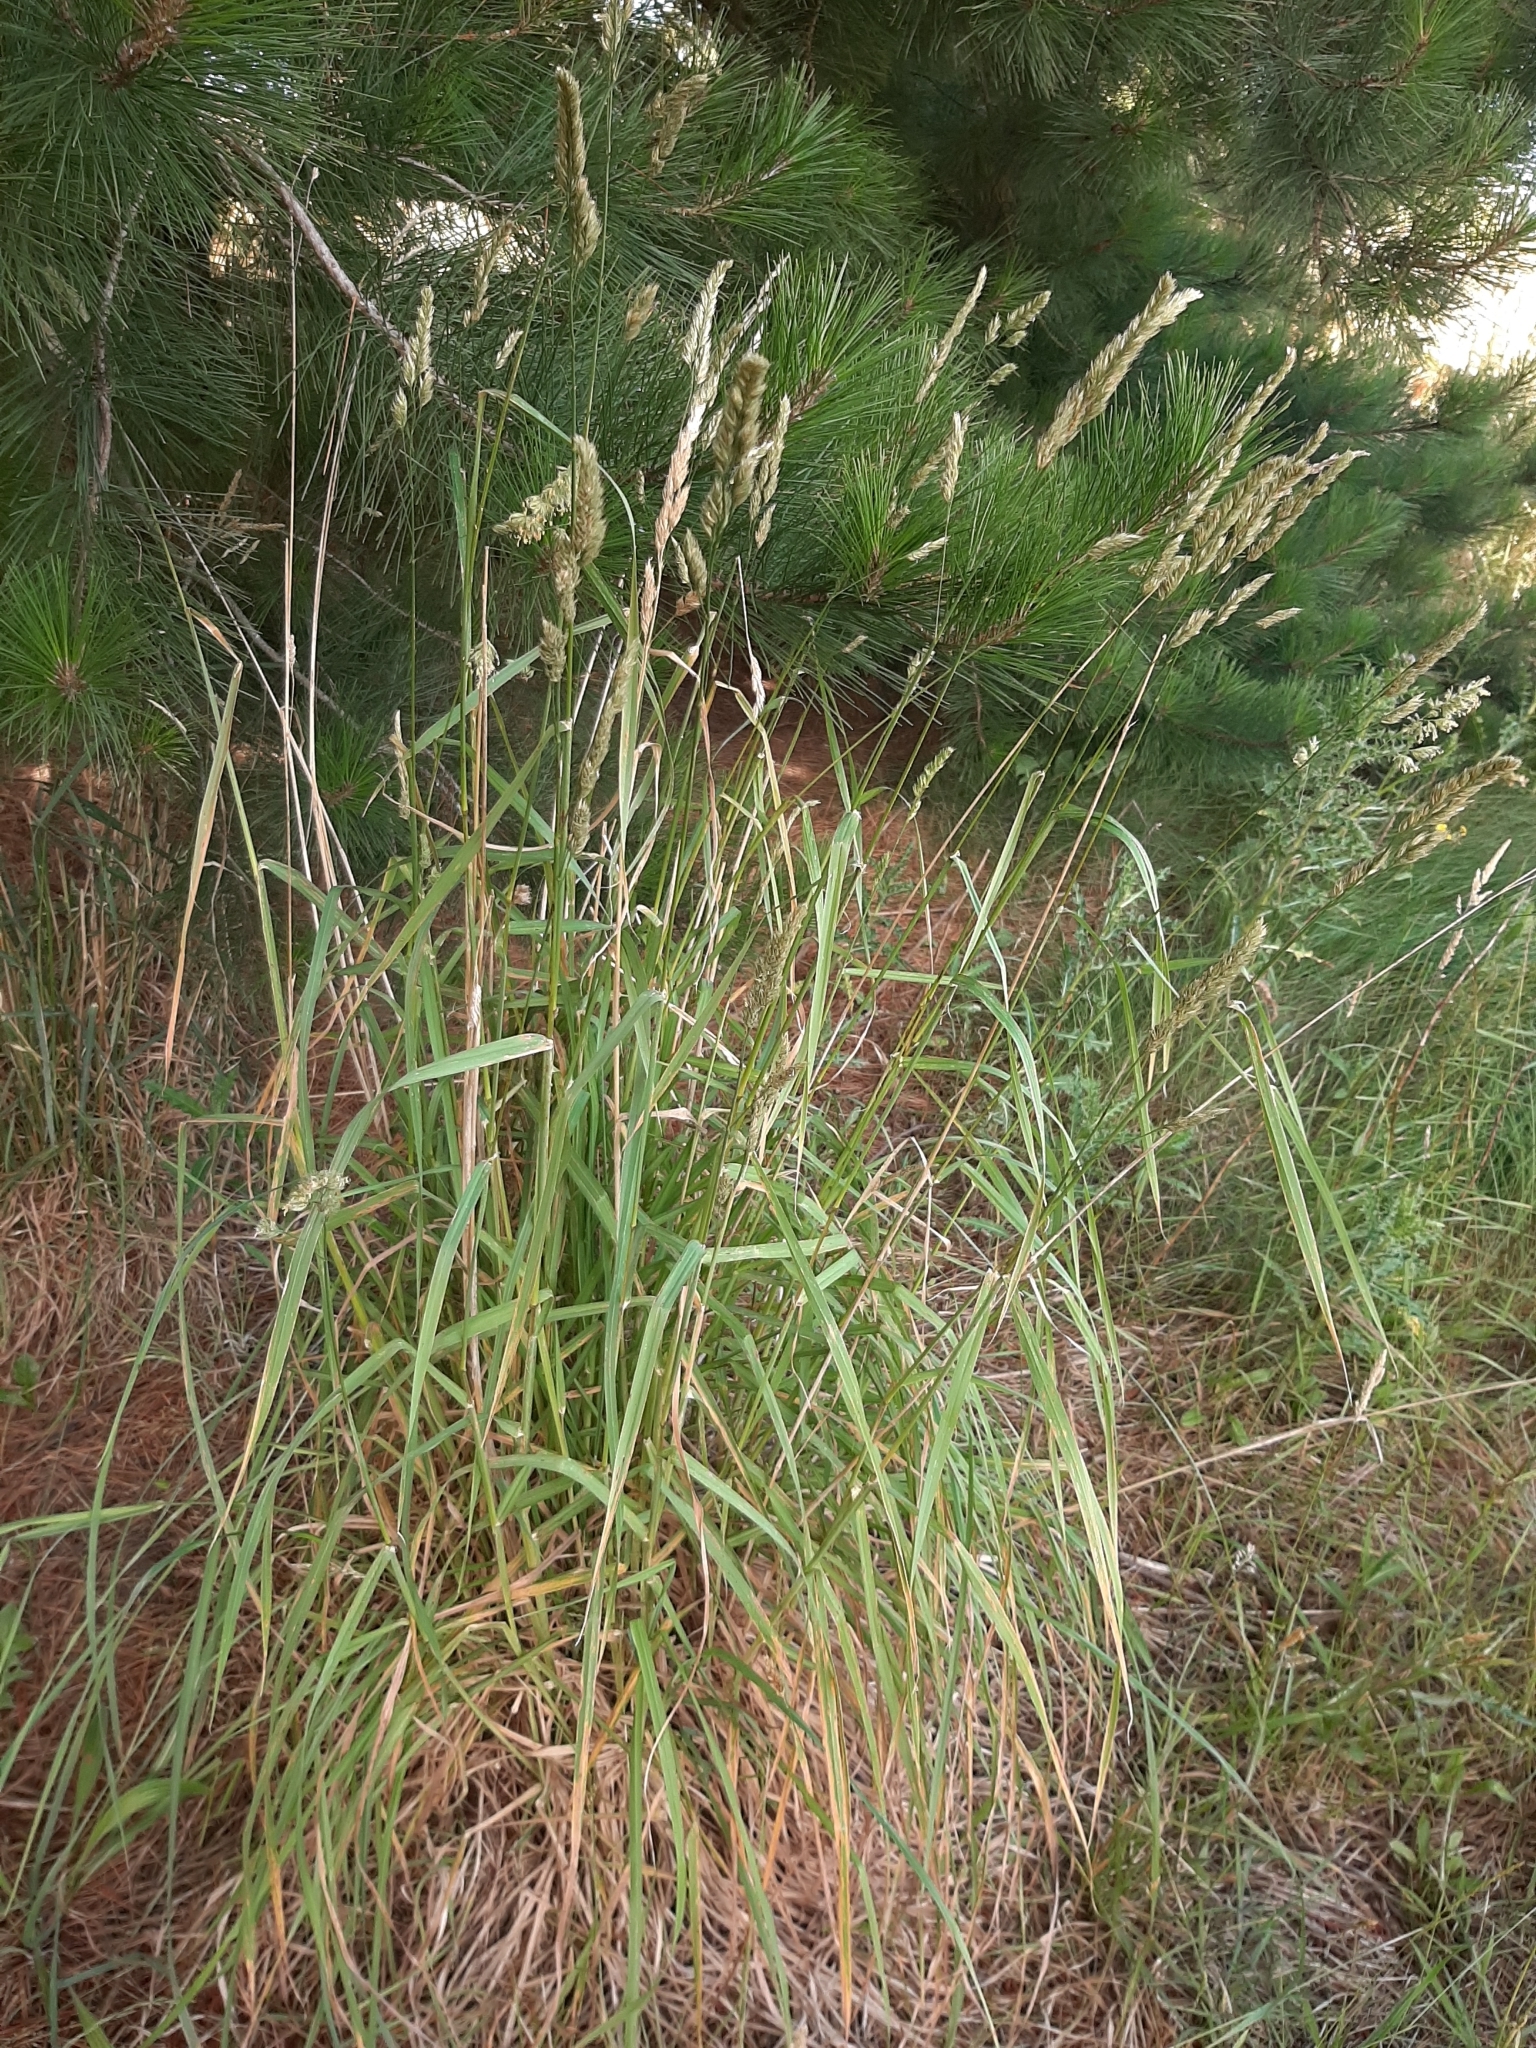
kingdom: Plantae
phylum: Tracheophyta
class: Liliopsida
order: Poales
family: Poaceae
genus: Dactylis
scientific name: Dactylis glomerata
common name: Orchardgrass
